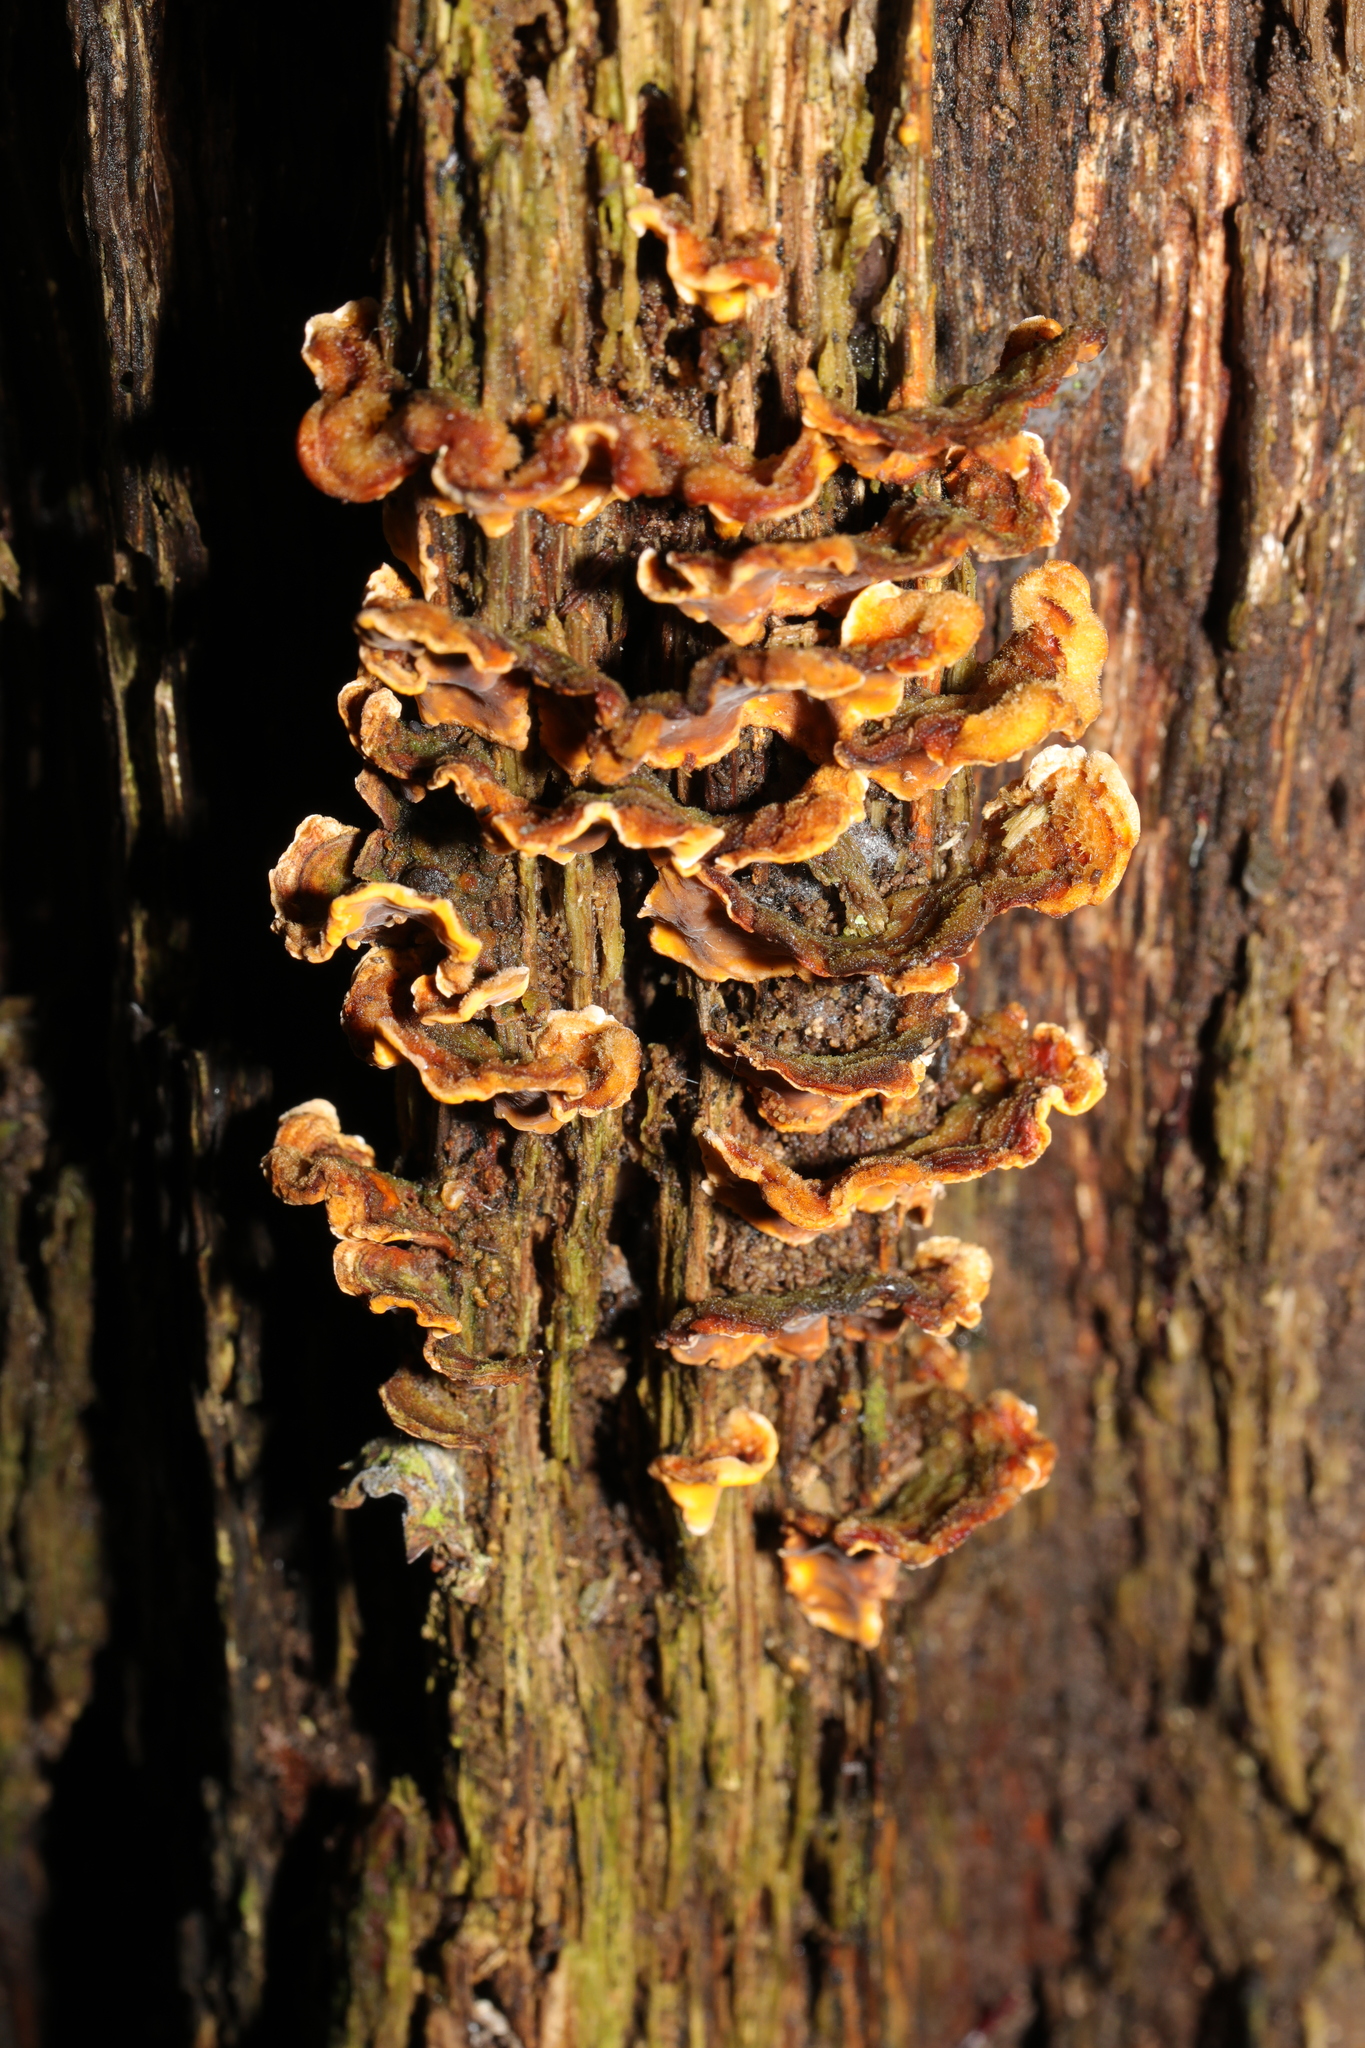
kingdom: Fungi
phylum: Basidiomycota
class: Agaricomycetes
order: Russulales
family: Stereaceae
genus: Stereum
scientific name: Stereum hirsutum
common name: Hairy curtain crust
